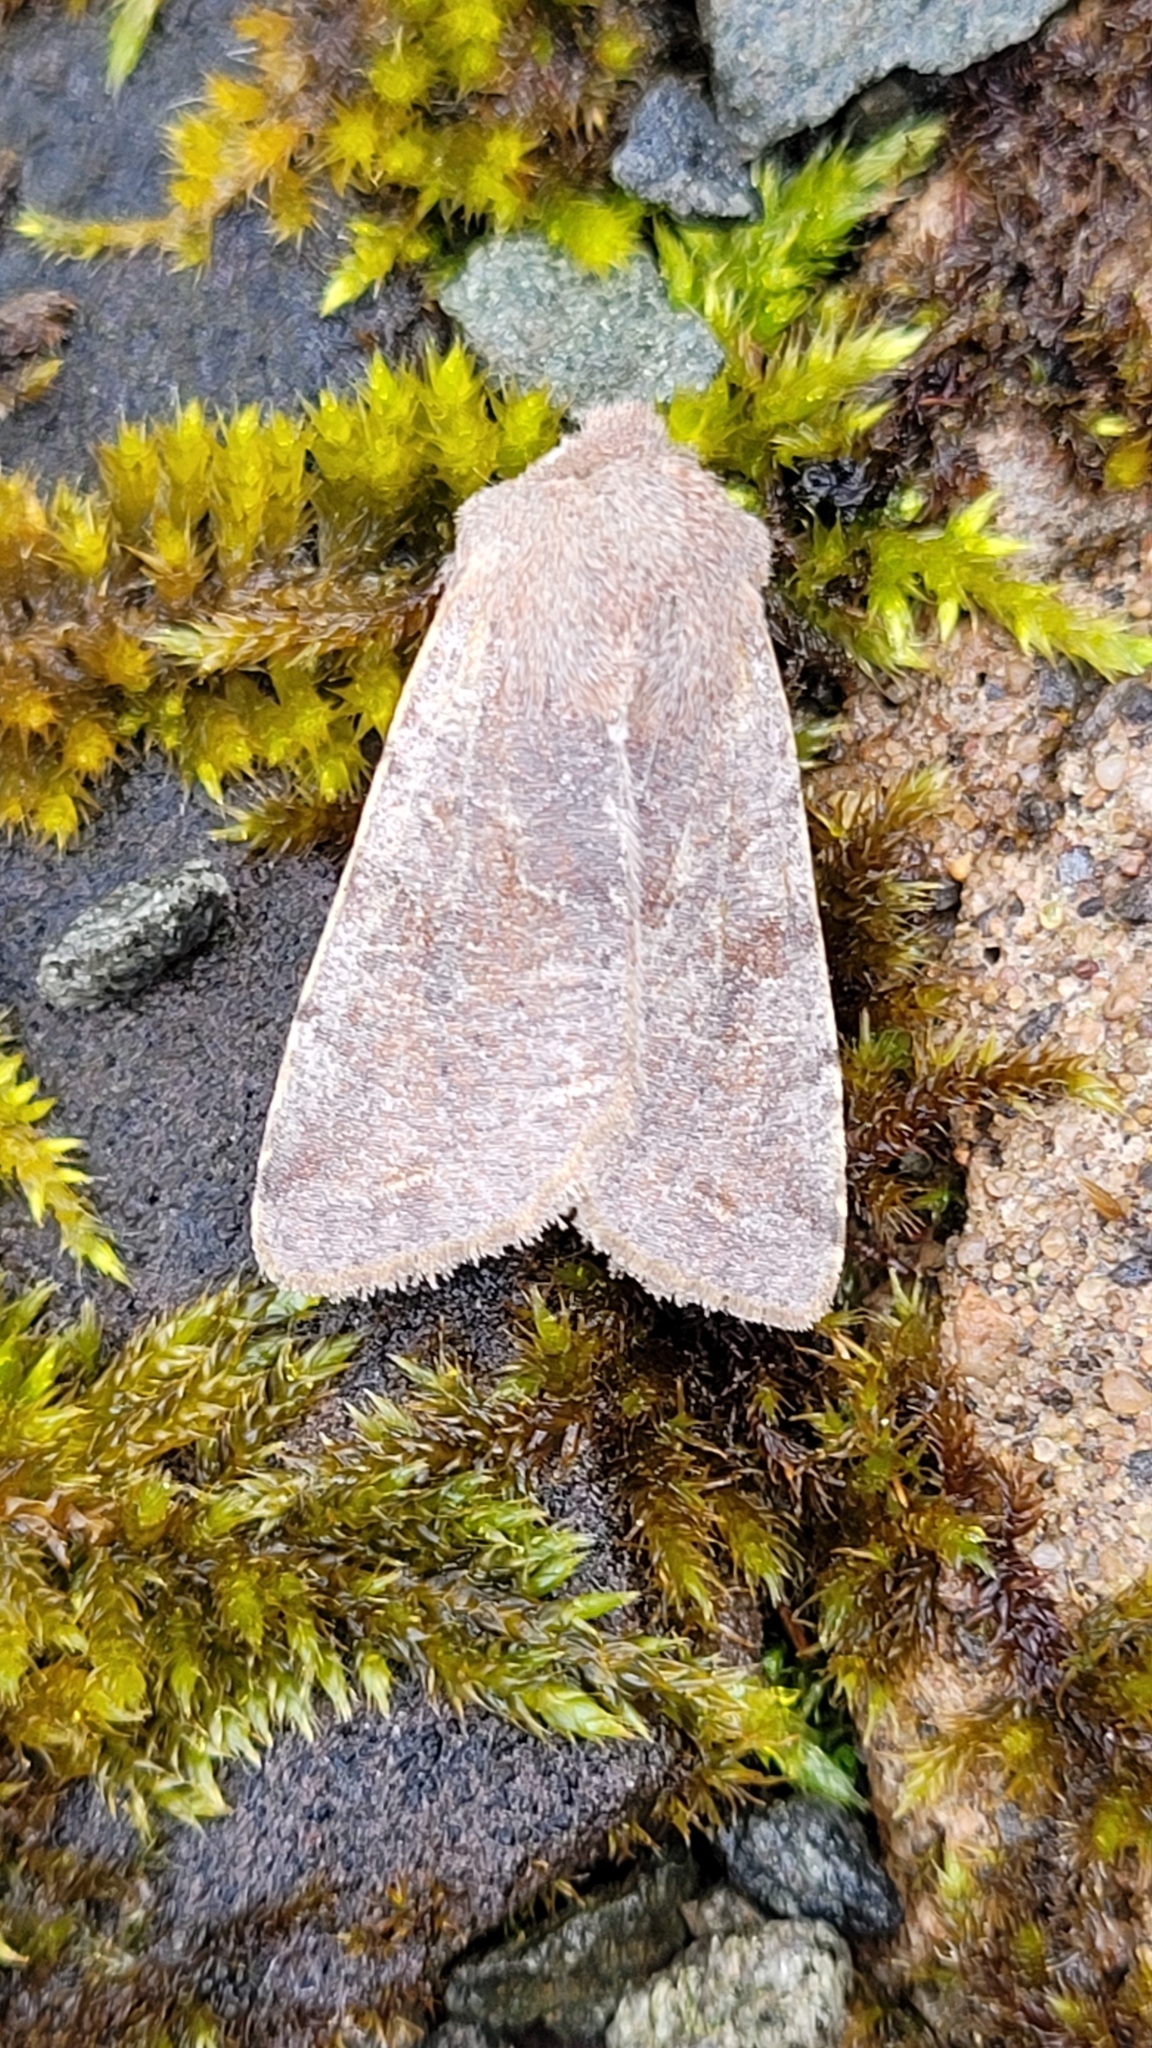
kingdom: Animalia
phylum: Arthropoda
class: Insecta
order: Lepidoptera
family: Noctuidae
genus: Orthosia
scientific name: Orthosia incerta
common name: Clouded drab
